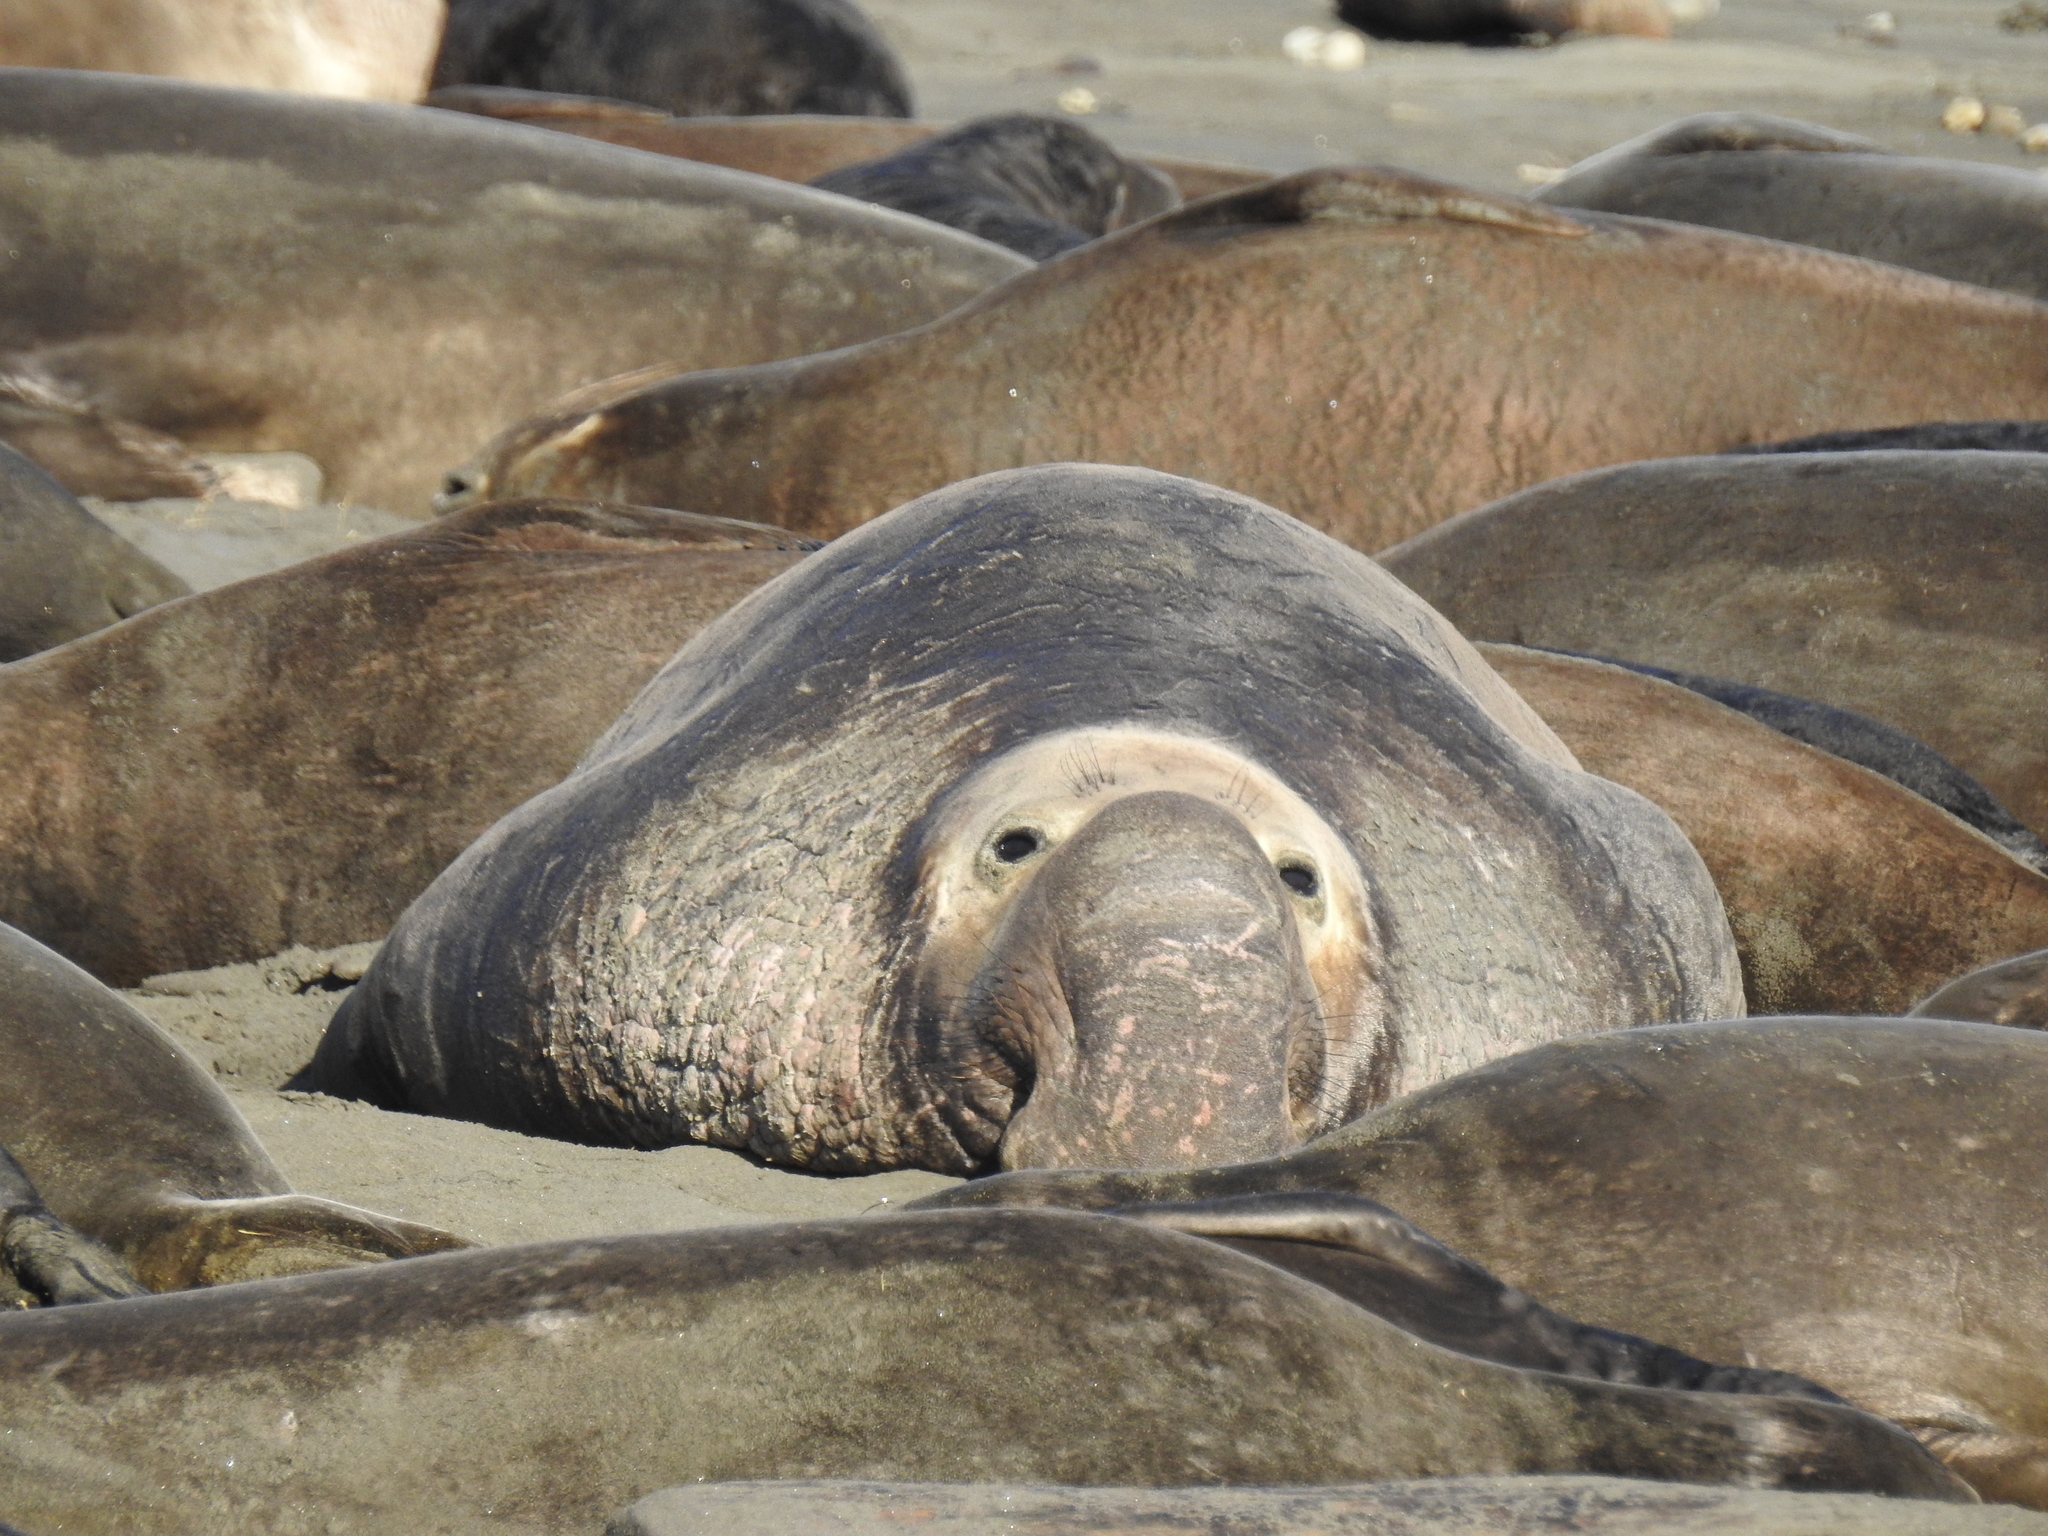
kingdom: Animalia
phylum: Chordata
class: Mammalia
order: Carnivora
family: Phocidae
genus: Mirounga
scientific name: Mirounga angustirostris
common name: Northern elephant seal
